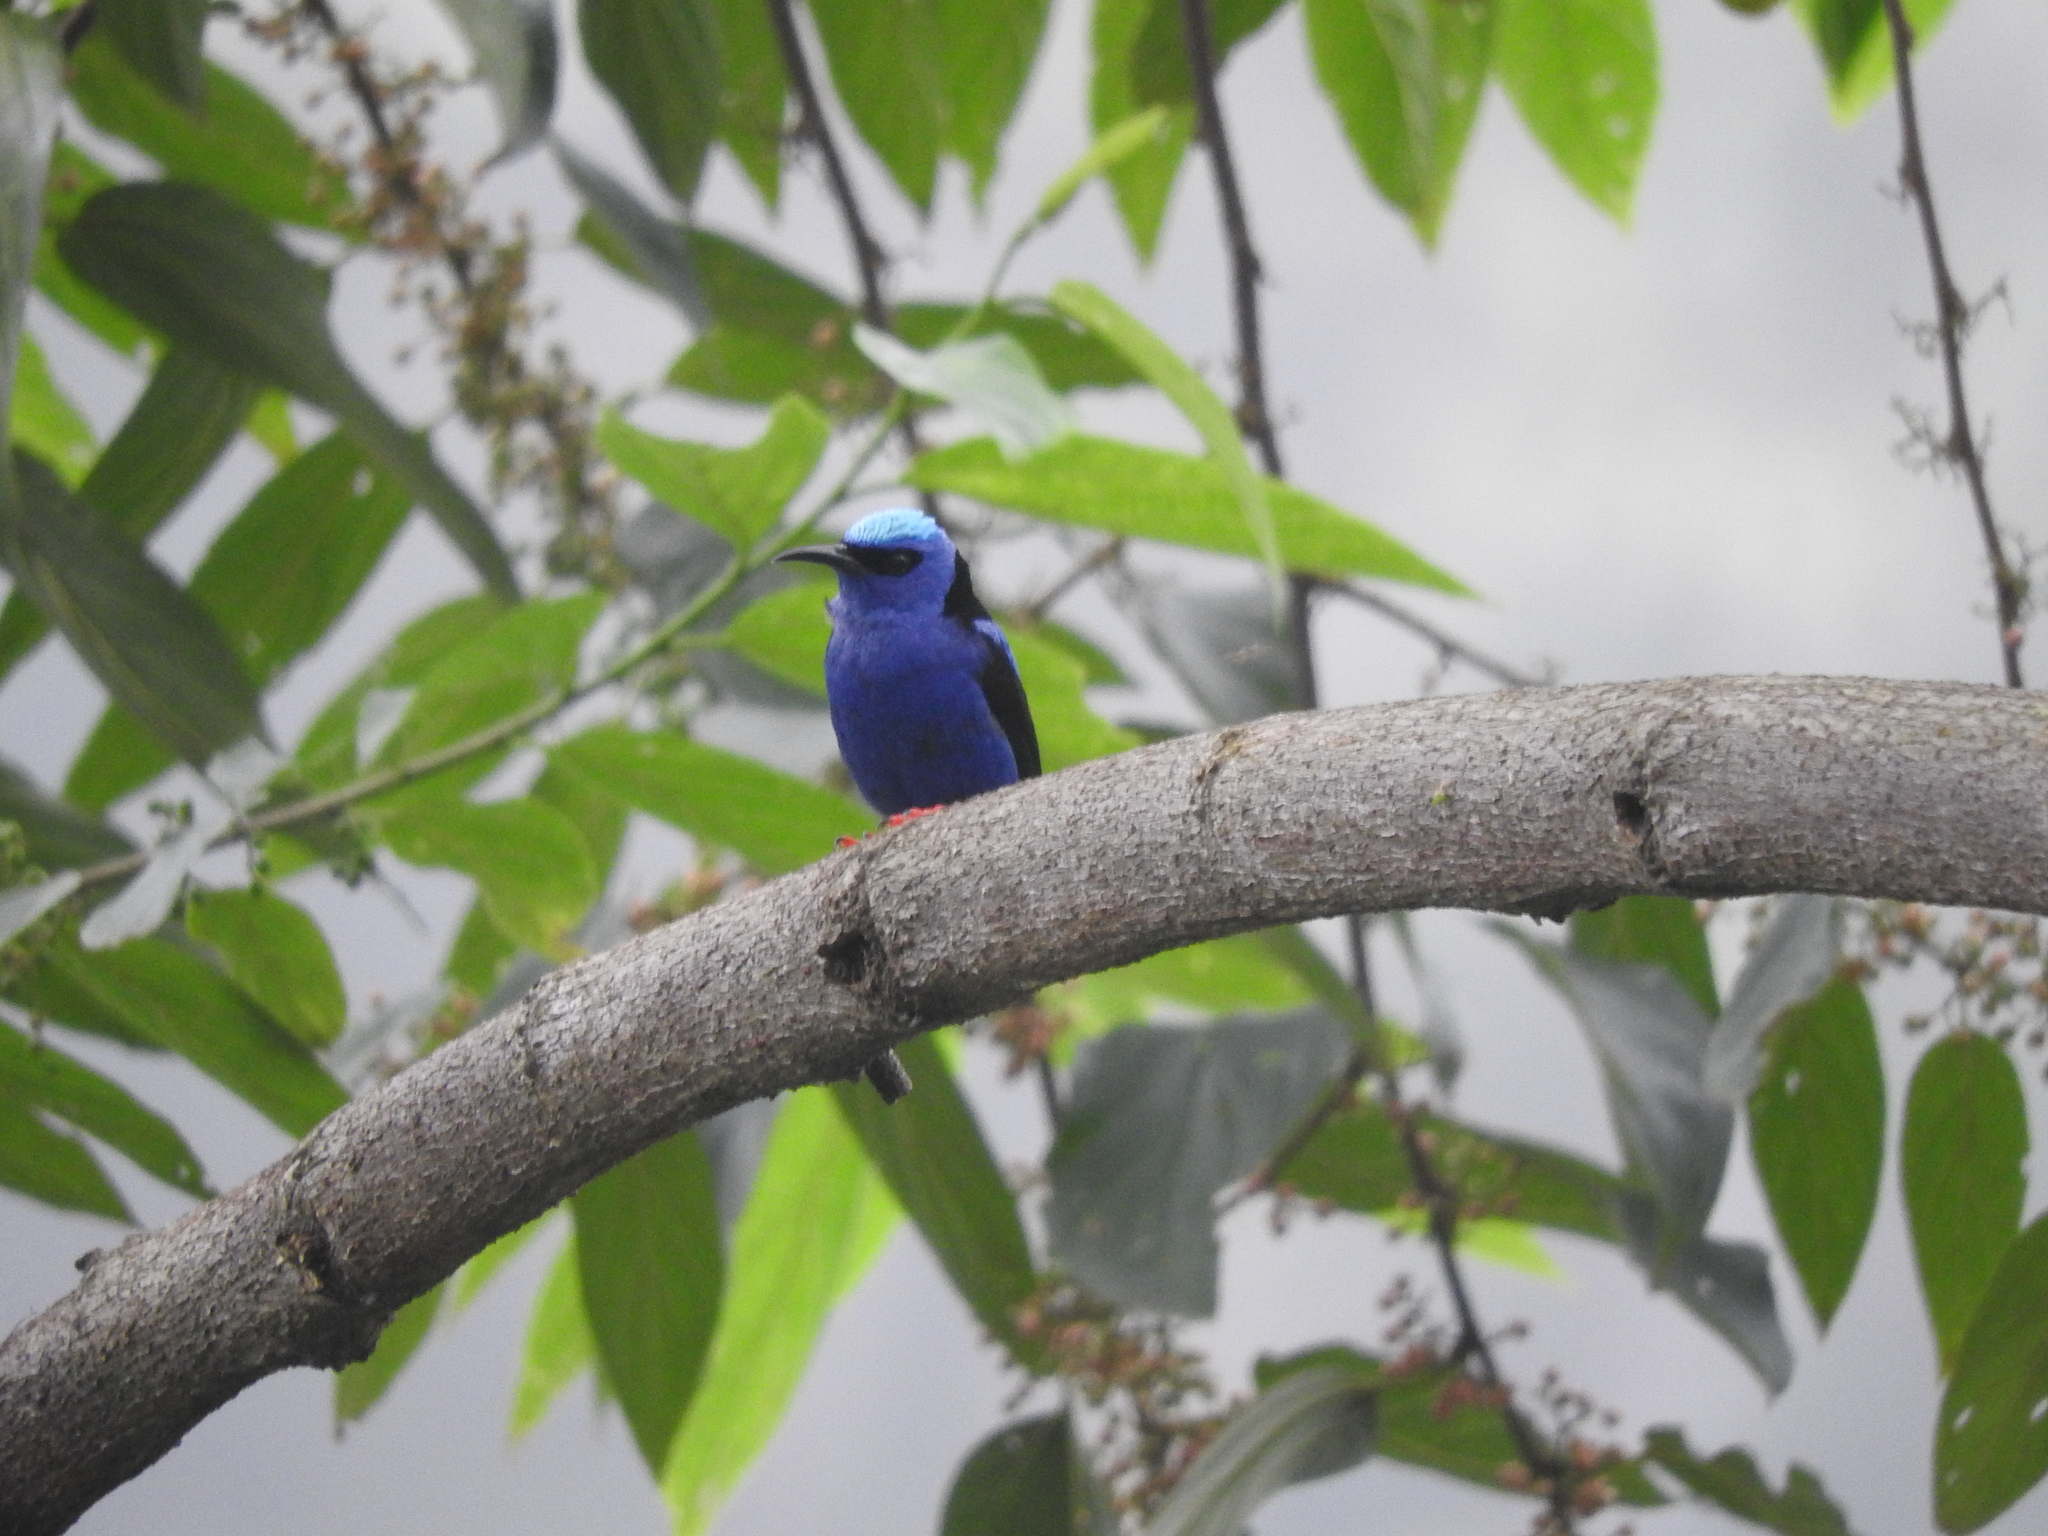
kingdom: Animalia
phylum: Chordata
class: Aves
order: Passeriformes
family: Thraupidae
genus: Cyanerpes
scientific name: Cyanerpes cyaneus
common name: Red-legged honeycreeper
